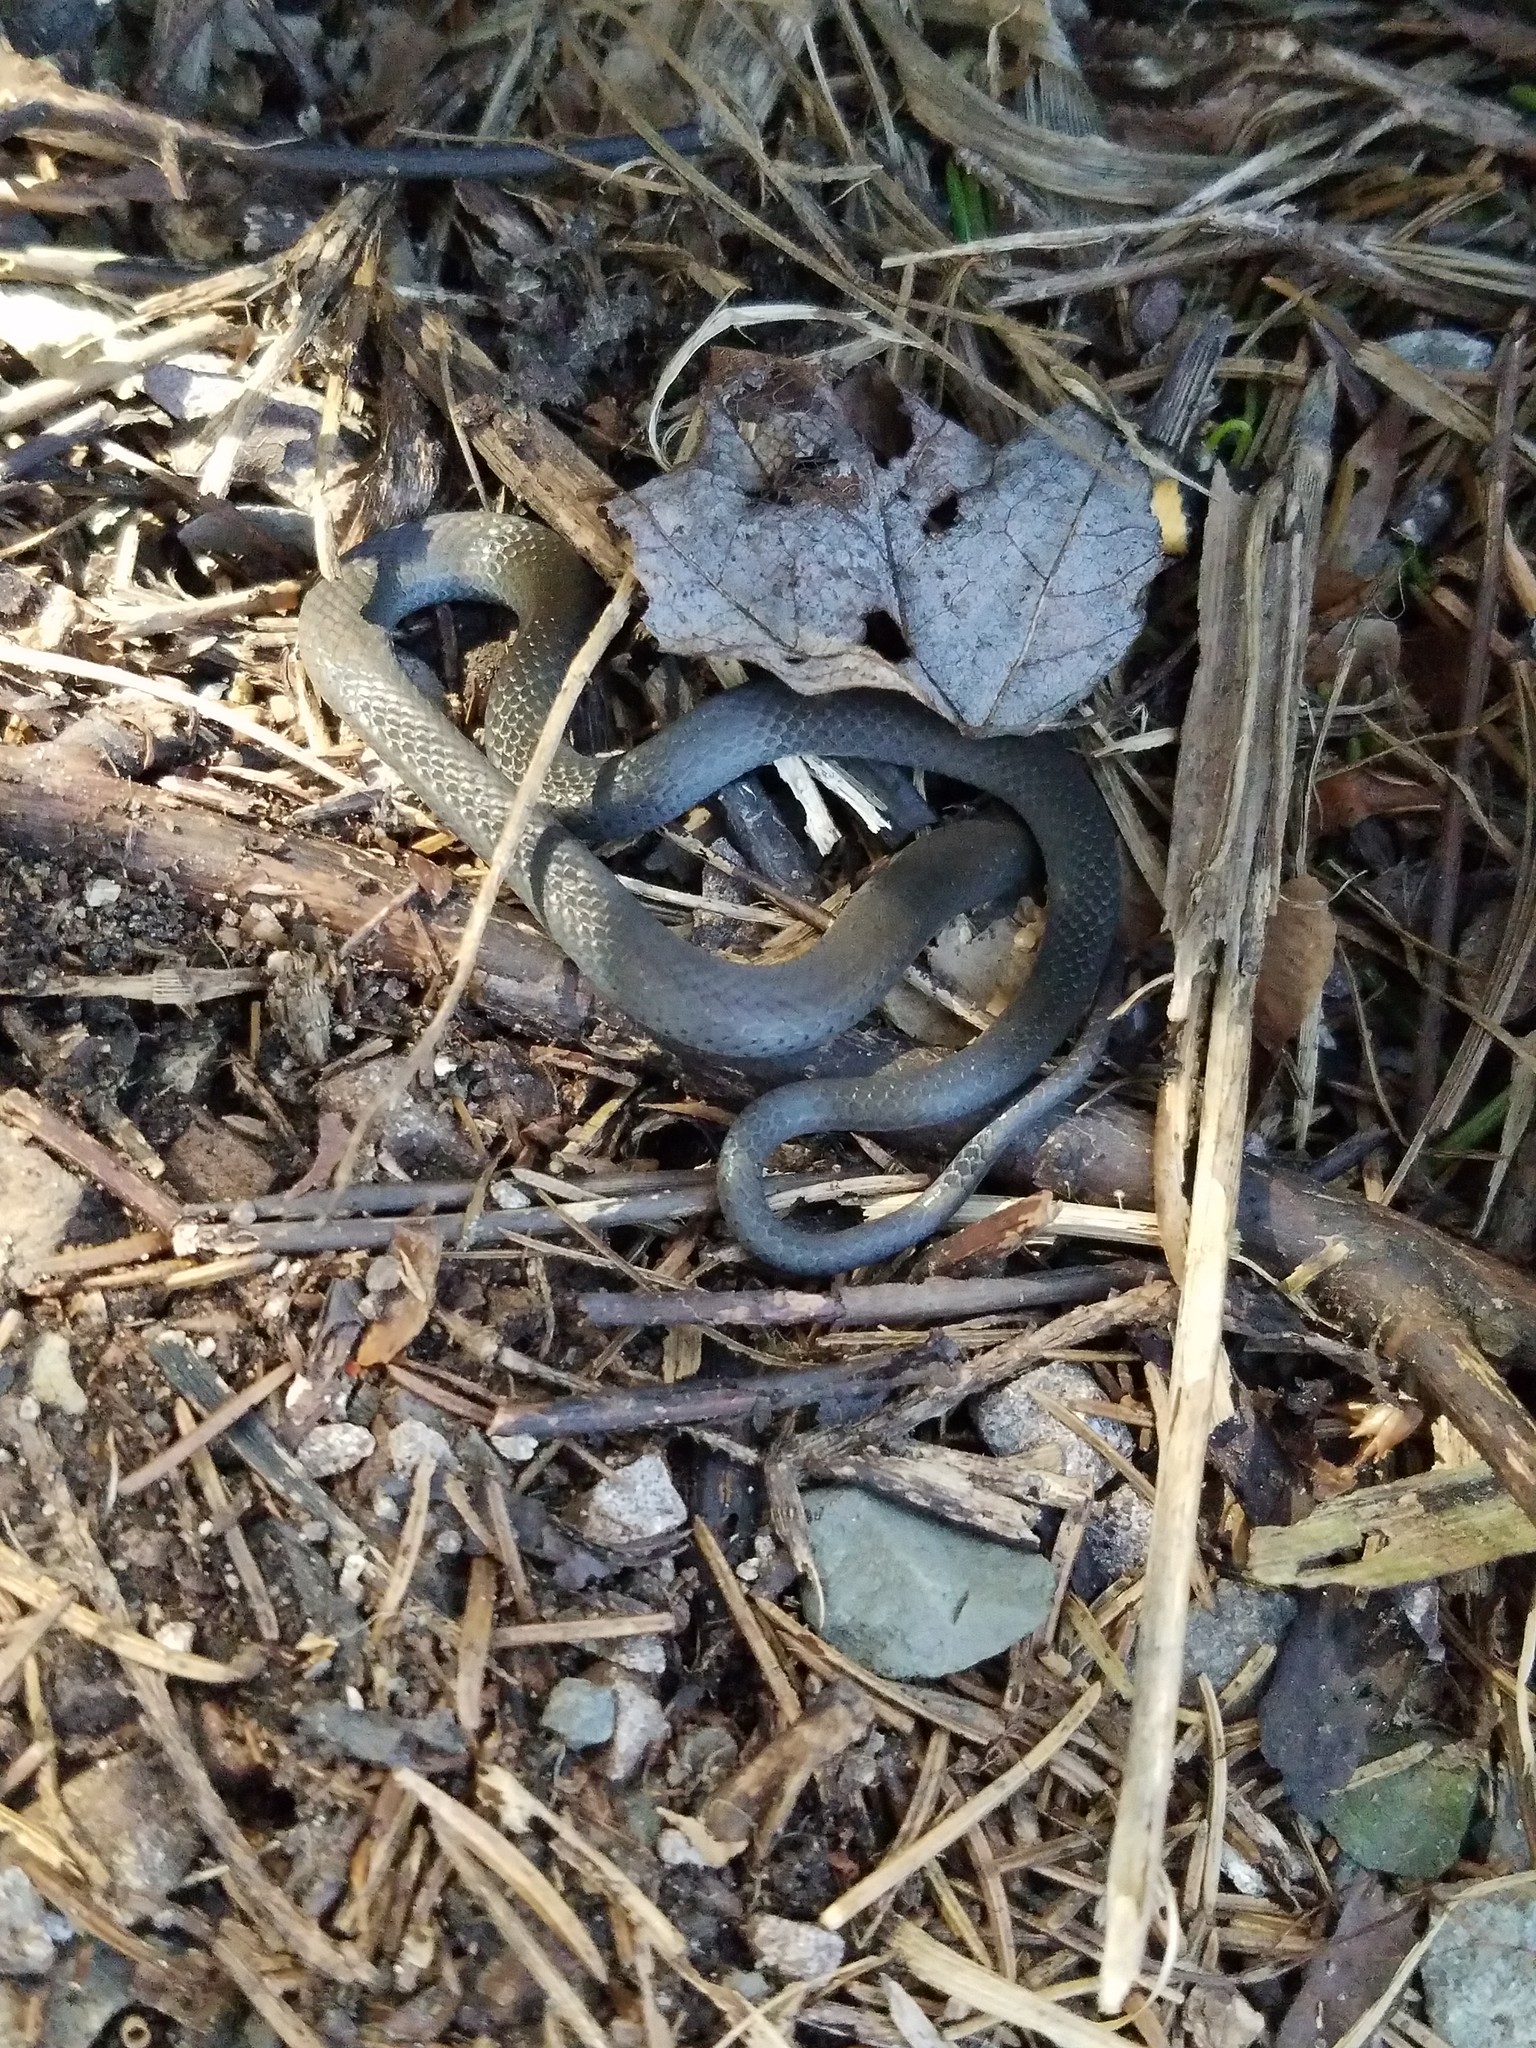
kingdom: Animalia
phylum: Chordata
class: Squamata
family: Colubridae
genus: Diadophis
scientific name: Diadophis punctatus
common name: Ringneck snake
